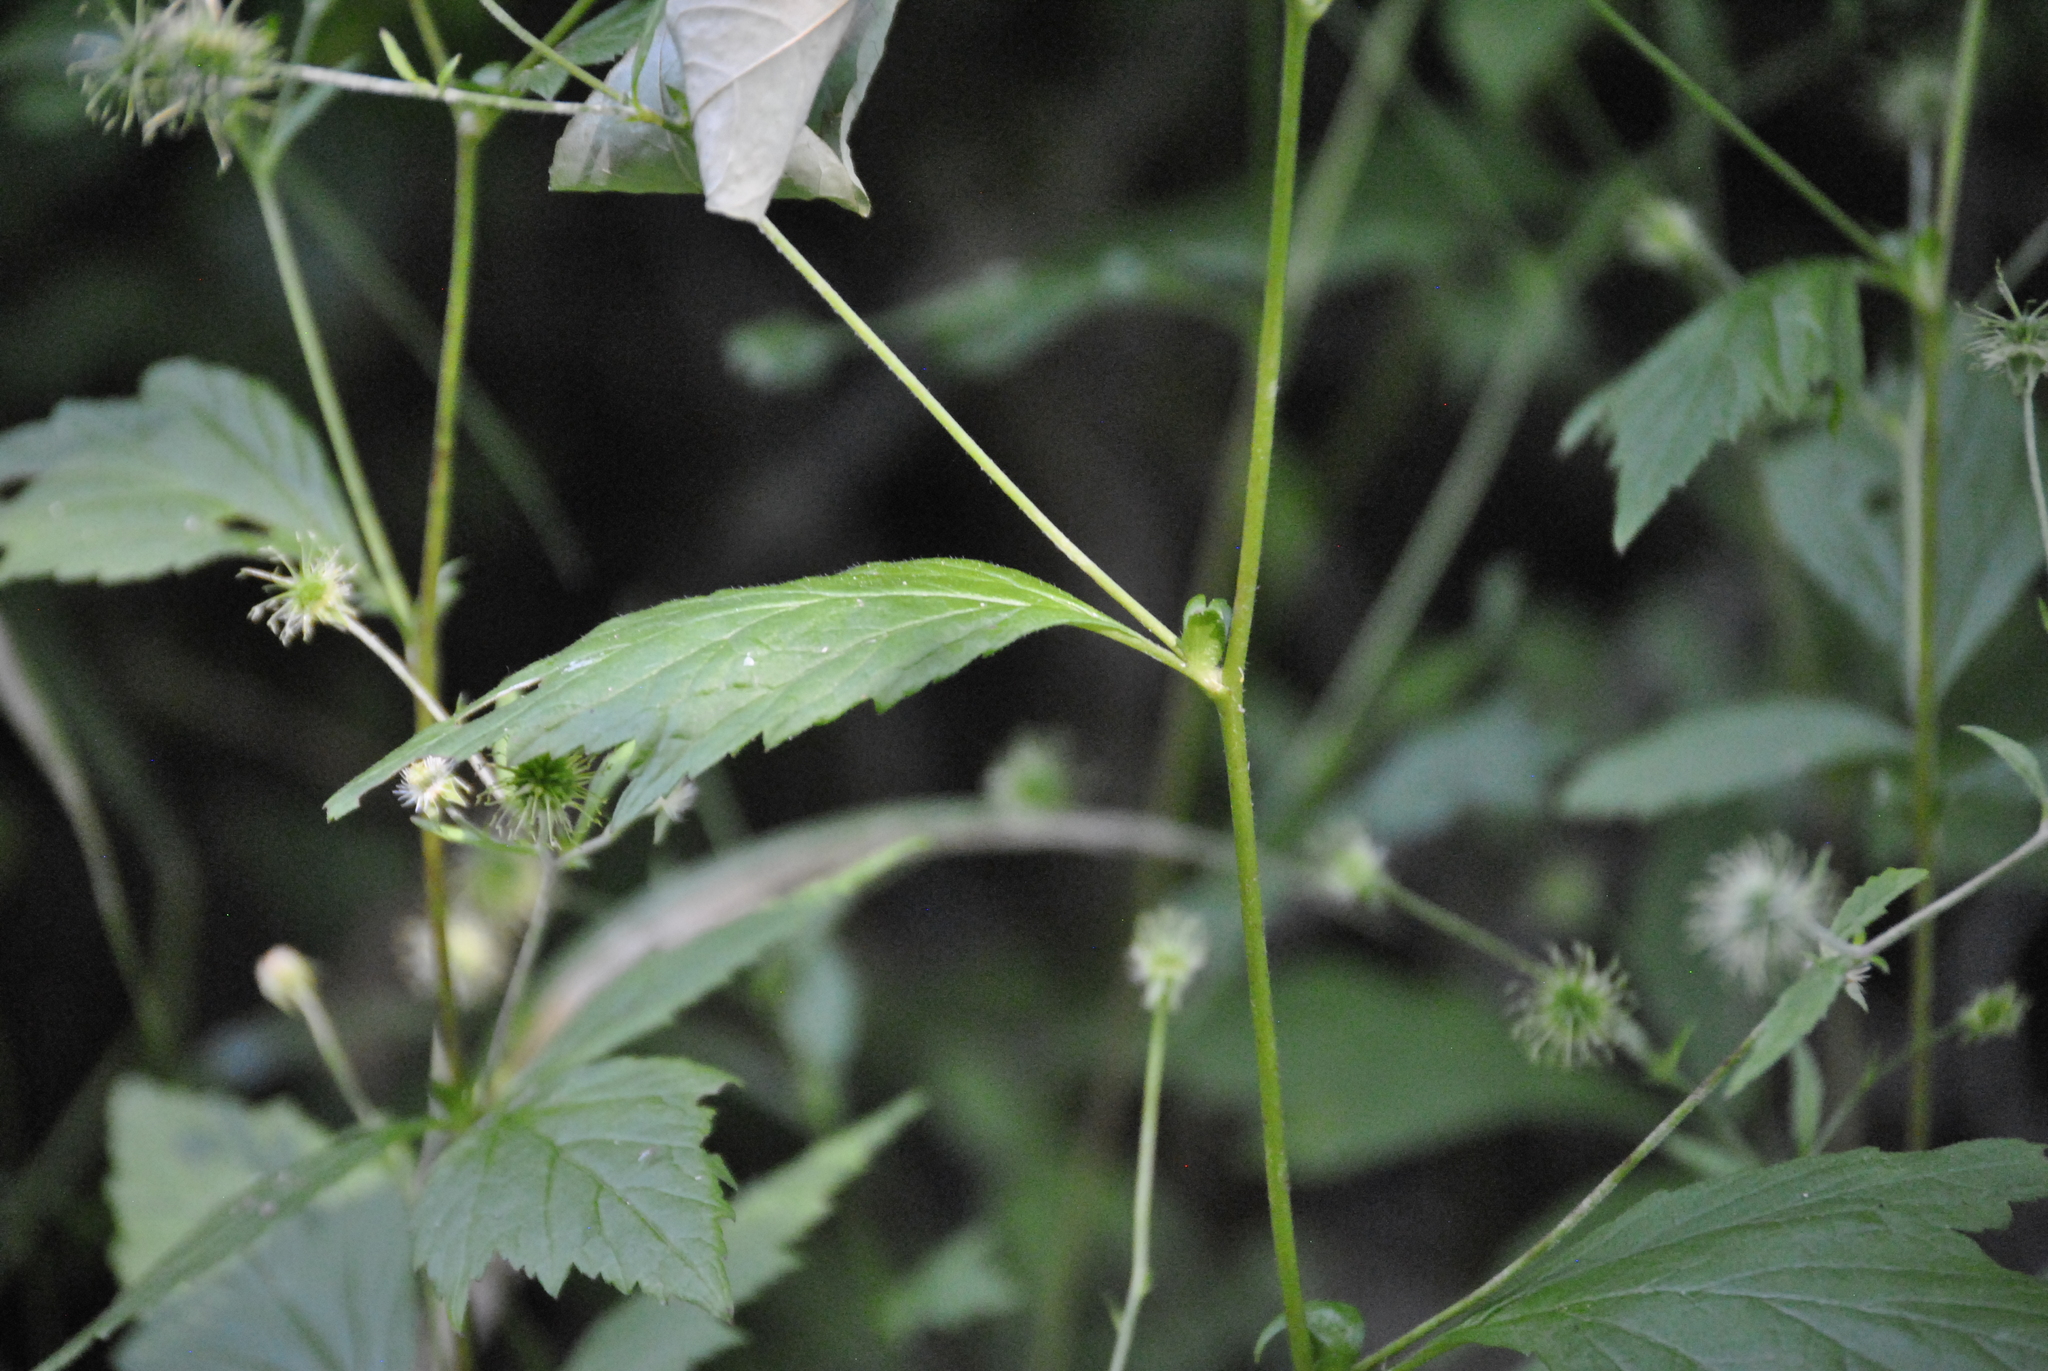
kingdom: Plantae
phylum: Tracheophyta
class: Magnoliopsida
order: Rosales
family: Rosaceae
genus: Geum
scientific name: Geum canadense
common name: White avens
